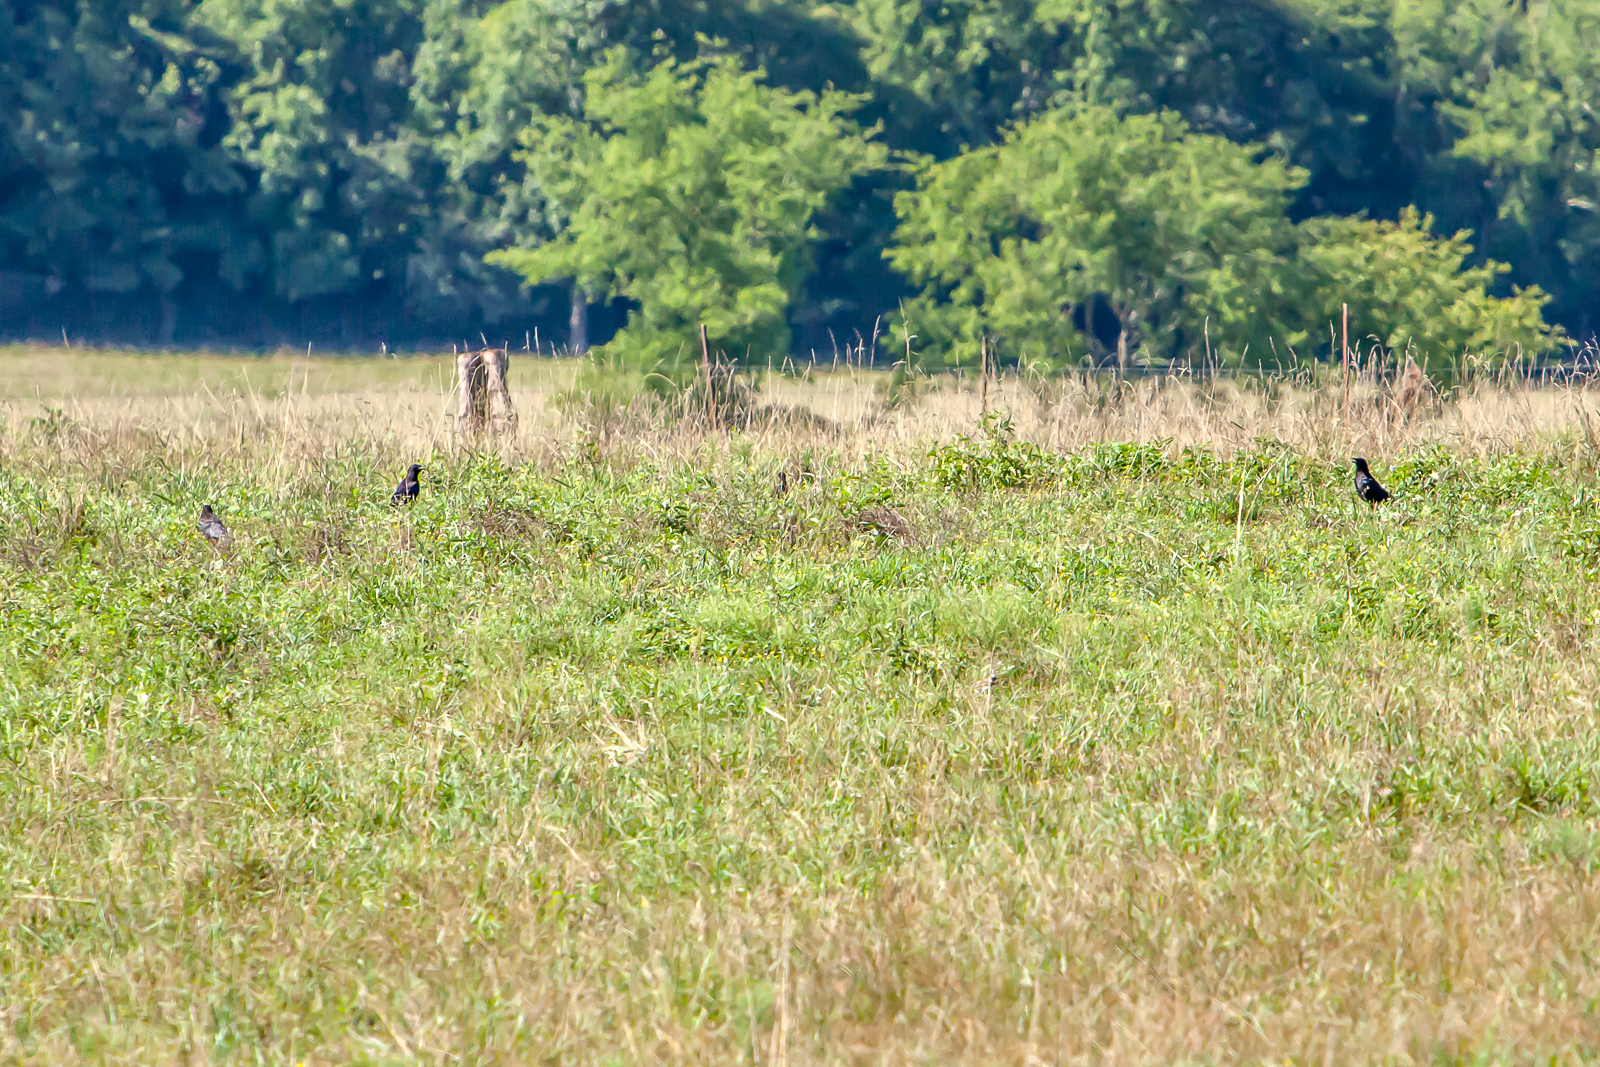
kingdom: Animalia
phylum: Chordata
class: Aves
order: Passeriformes
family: Corvidae
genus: Corvus
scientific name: Corvus brachyrhynchos
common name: American crow
